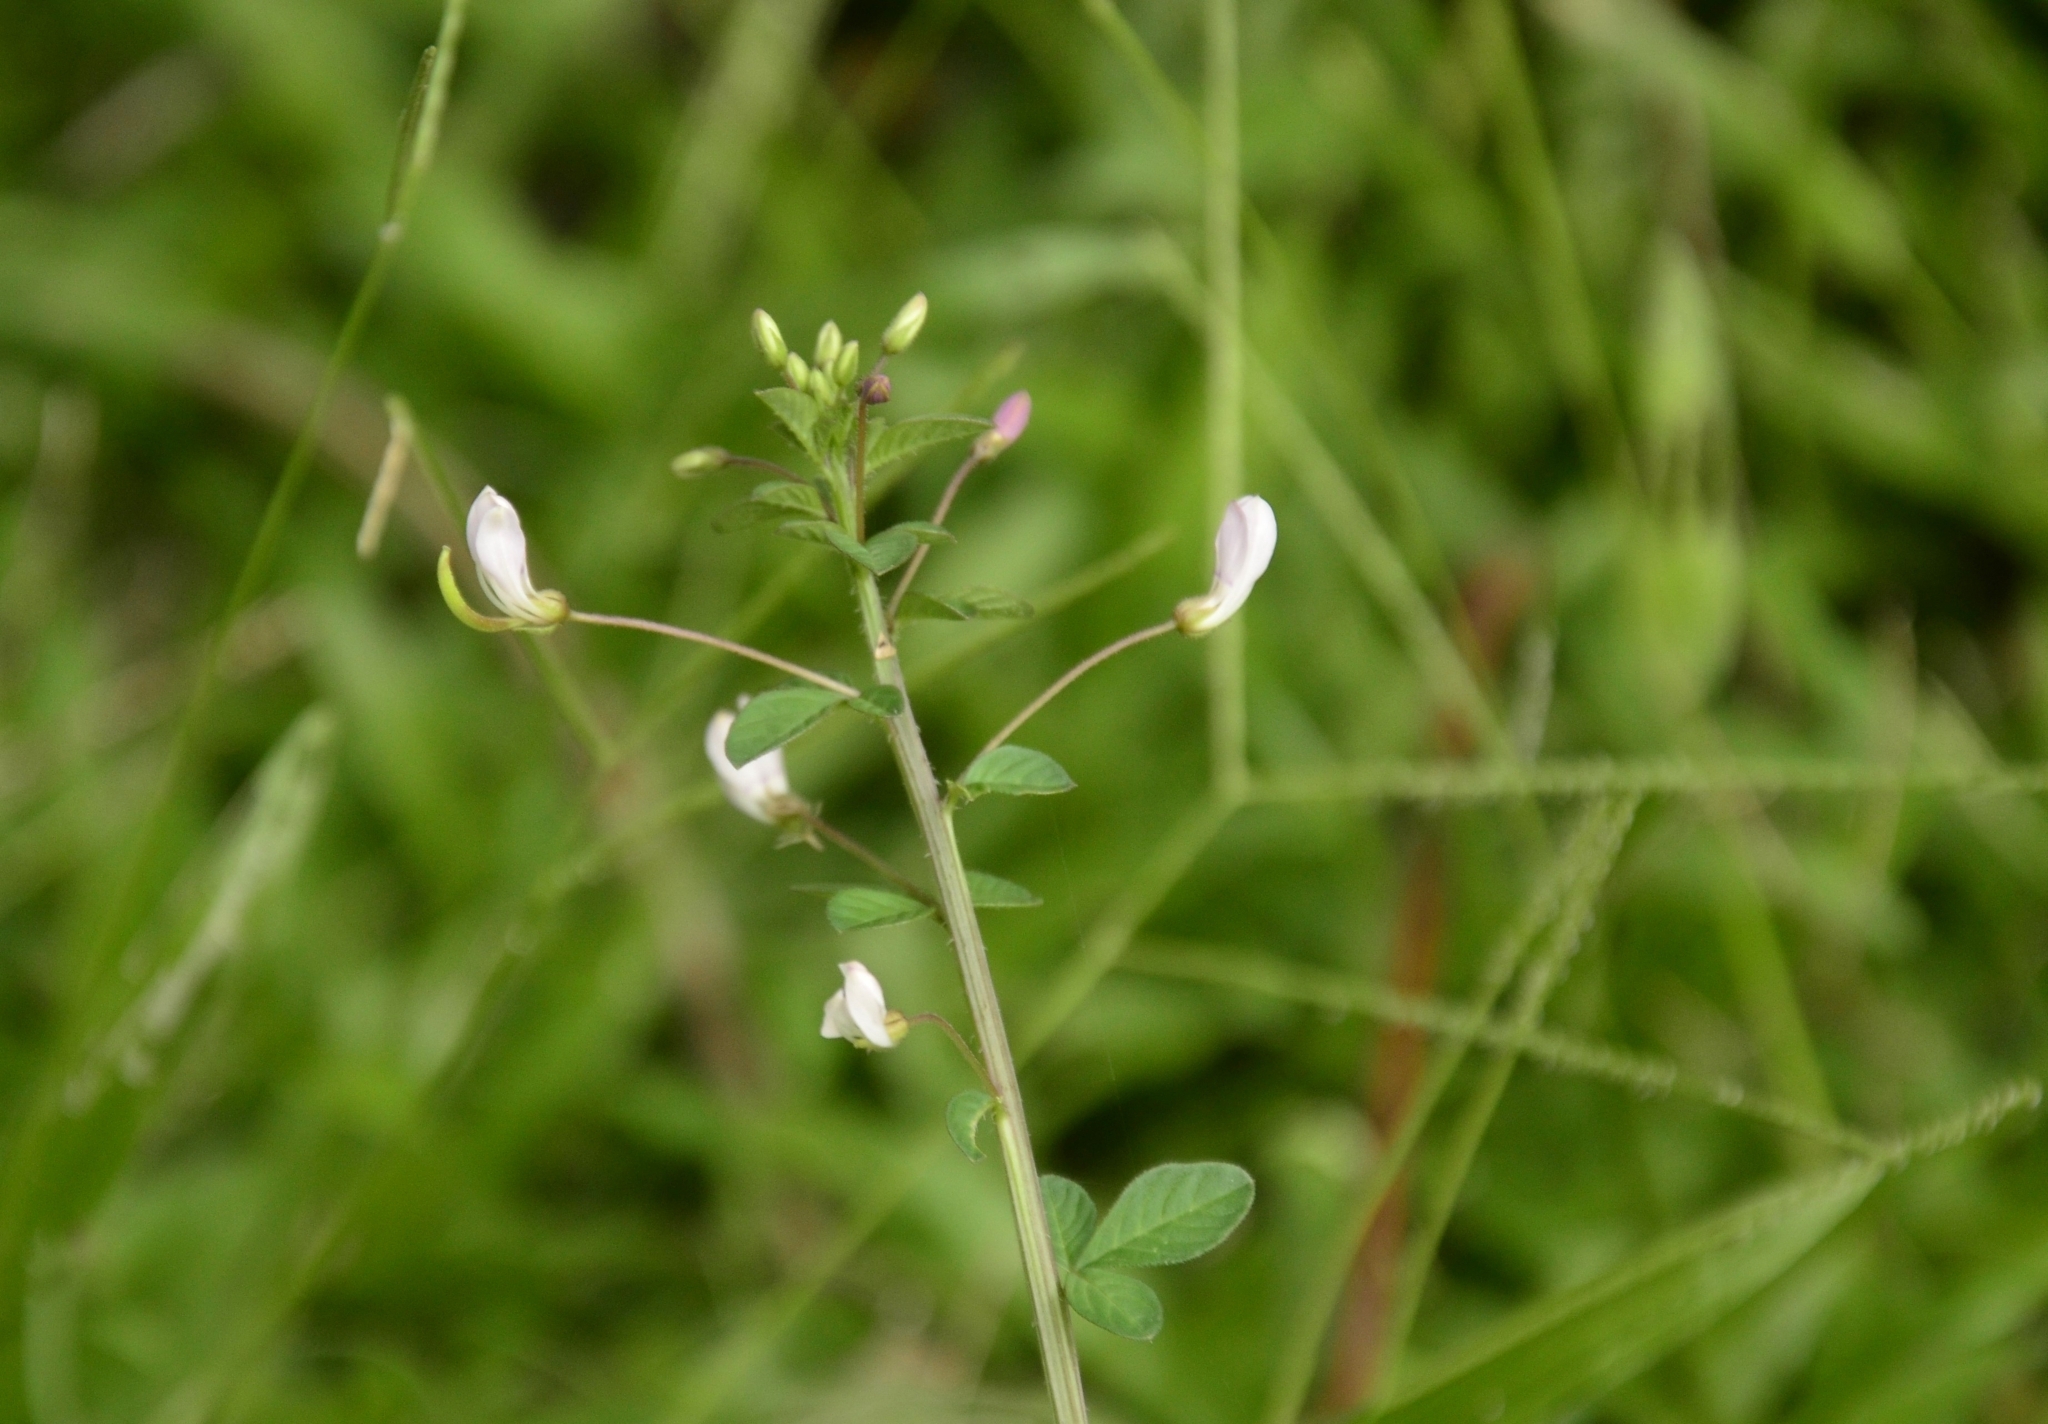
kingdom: Plantae
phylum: Tracheophyta
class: Magnoliopsida
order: Brassicales
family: Cleomaceae
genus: Sieruela
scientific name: Sieruela rutidosperma
